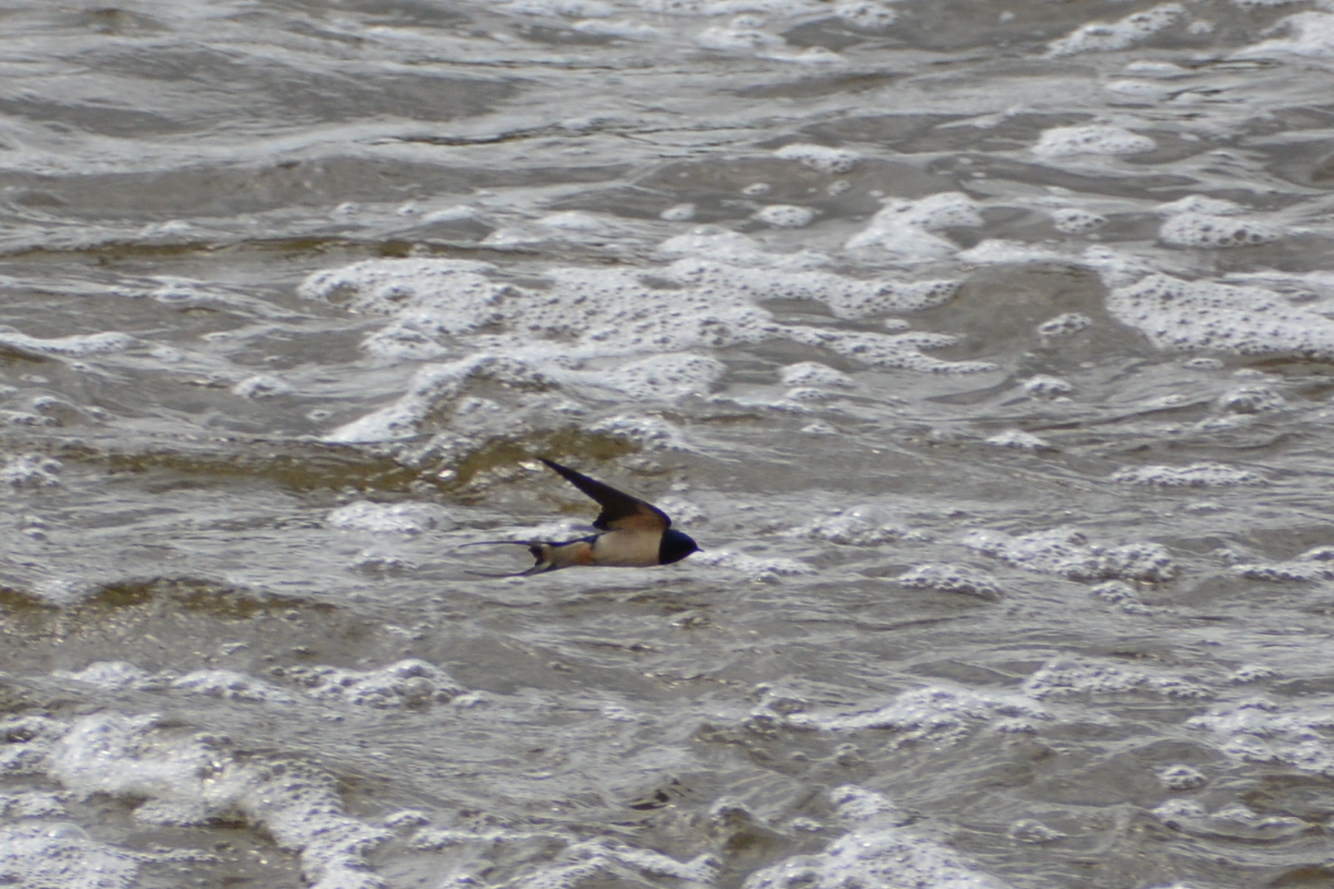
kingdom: Animalia
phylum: Chordata
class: Aves
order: Passeriformes
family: Hirundinidae
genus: Hirundo
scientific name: Hirundo rustica
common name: Barn swallow
